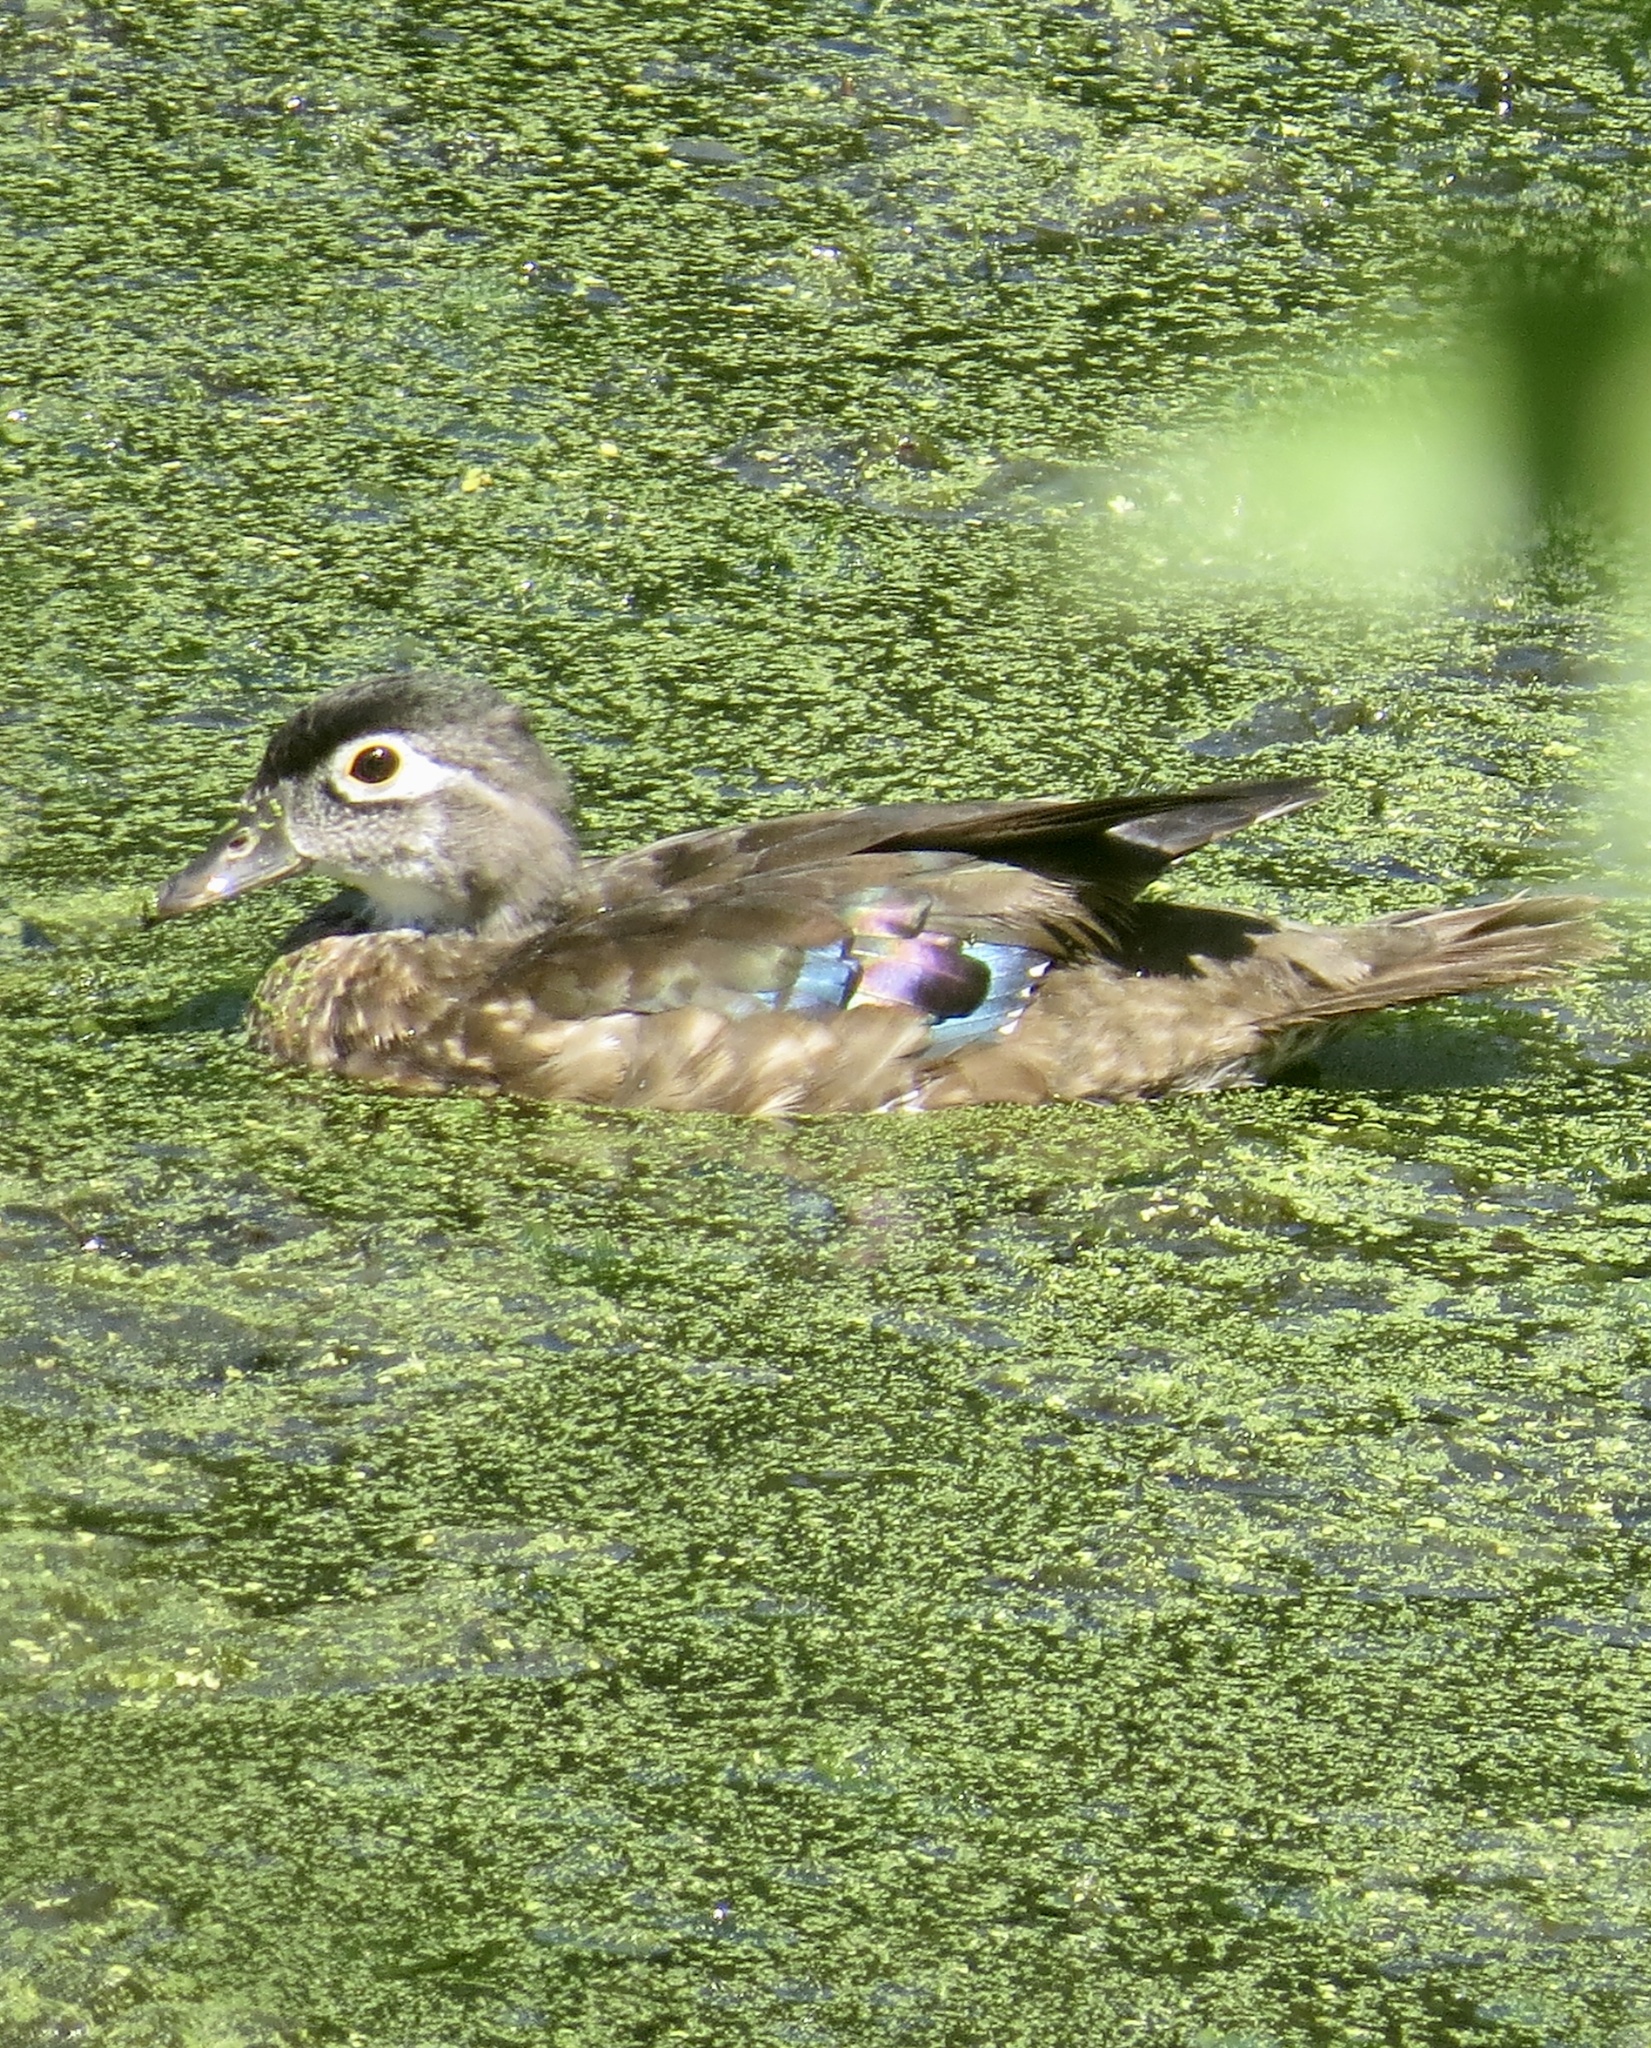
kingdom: Animalia
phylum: Chordata
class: Aves
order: Anseriformes
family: Anatidae
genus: Aix
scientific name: Aix sponsa
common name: Wood duck
